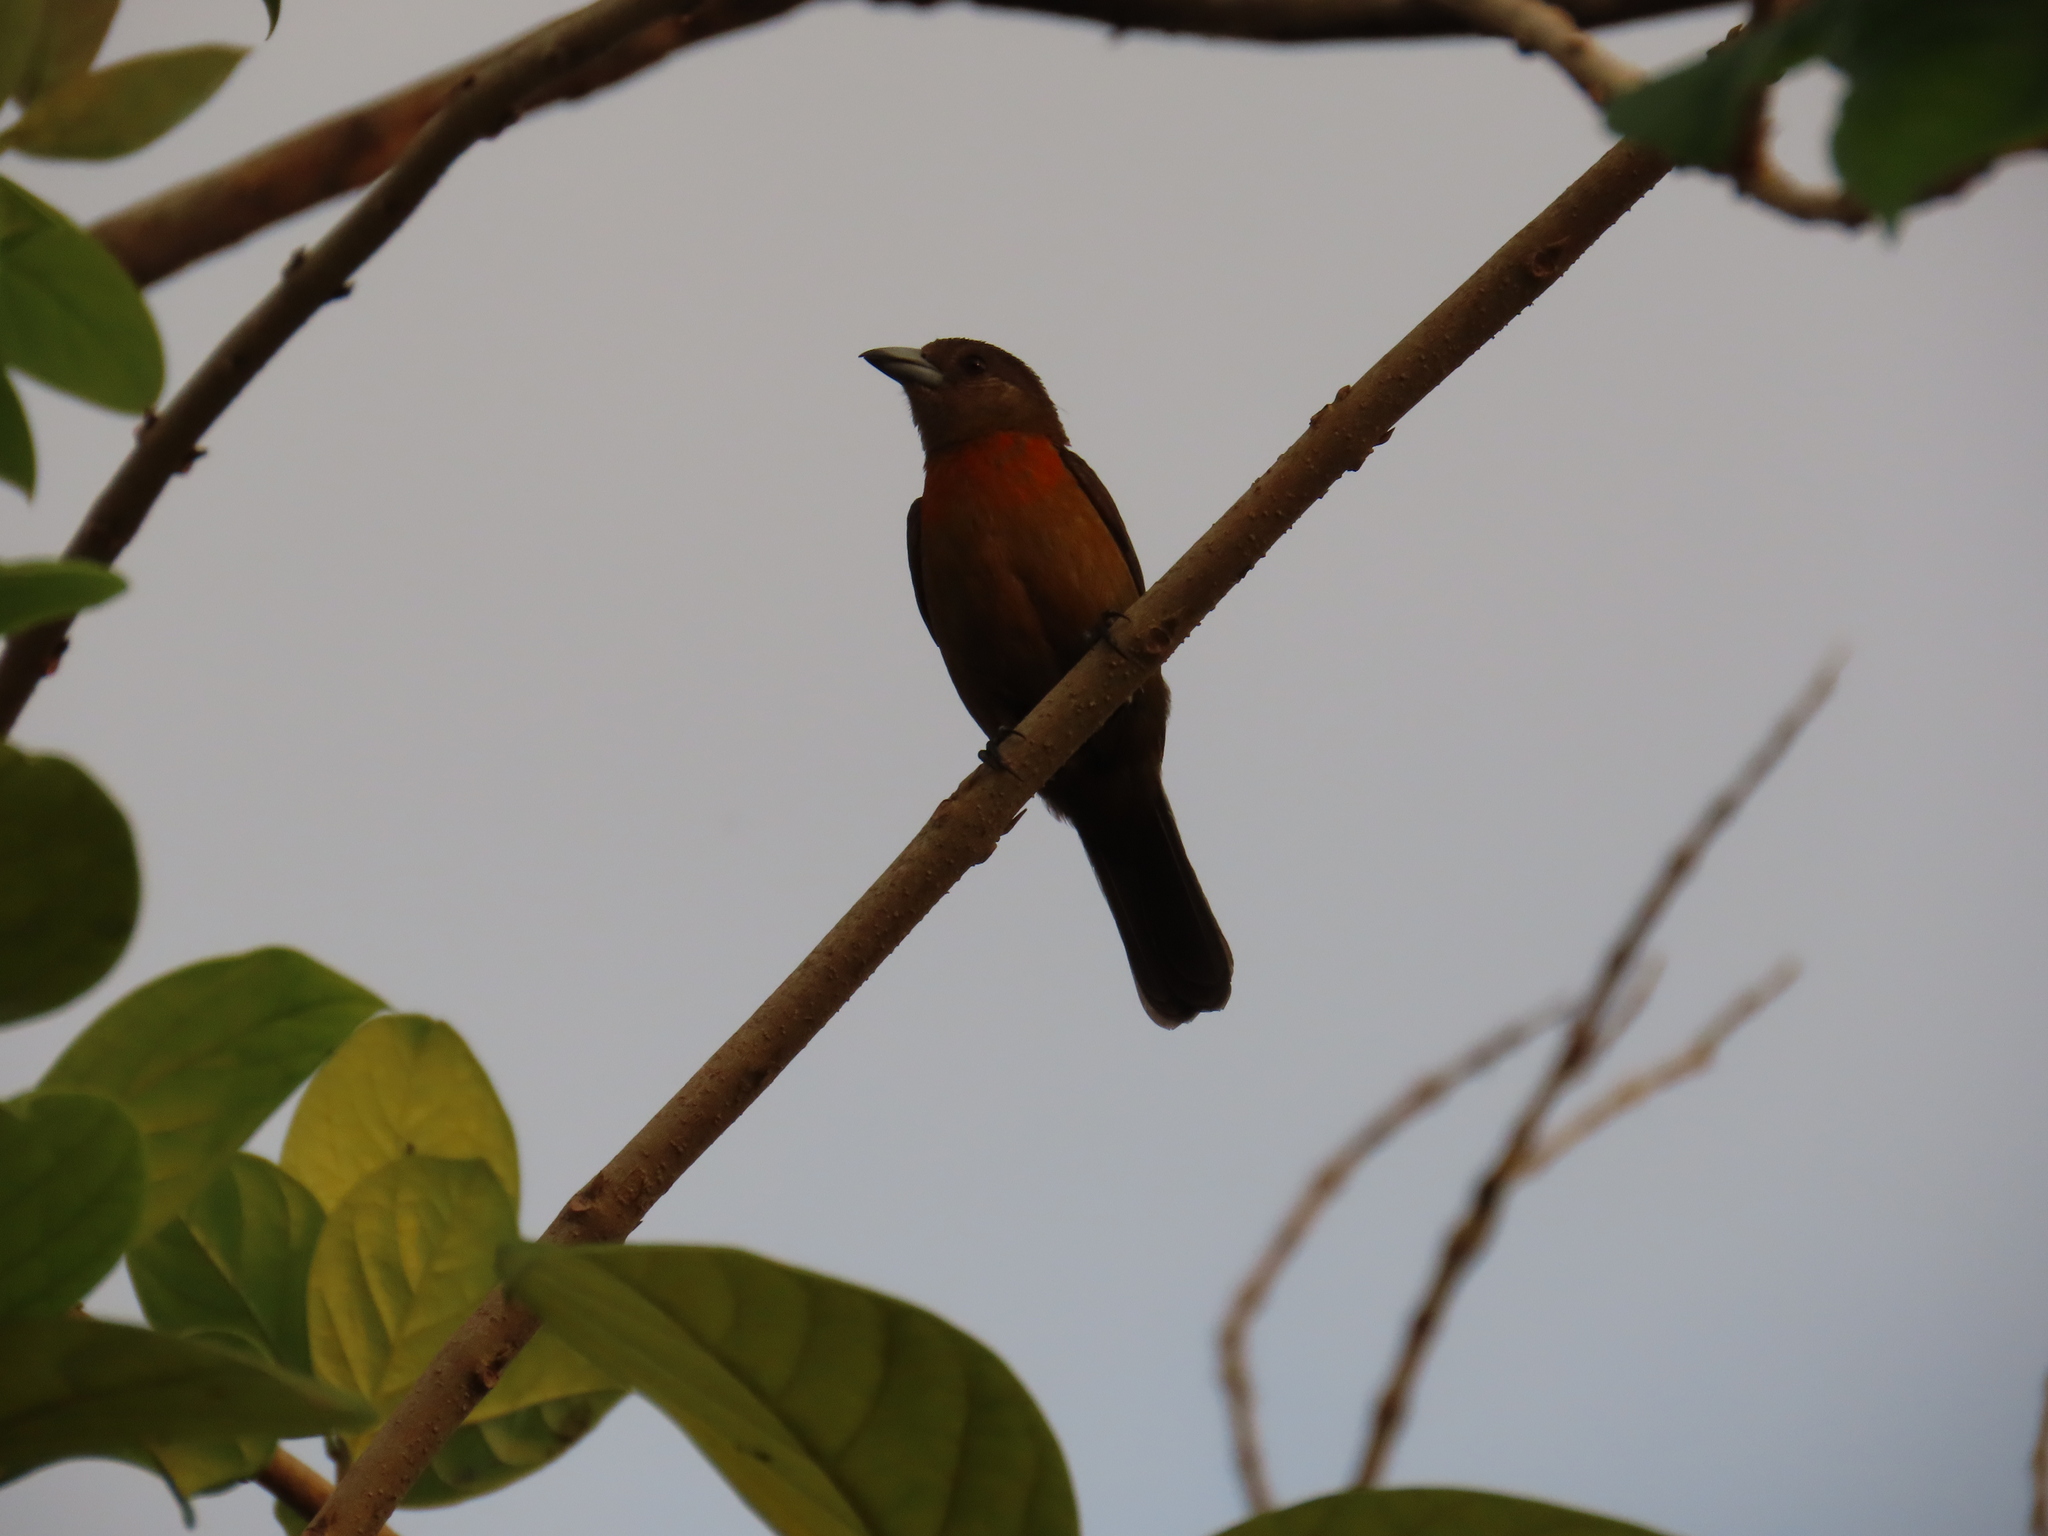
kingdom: Animalia
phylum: Chordata
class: Aves
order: Passeriformes
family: Thraupidae
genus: Ramphocelus
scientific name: Ramphocelus passerinii
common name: Passerini's tanager
